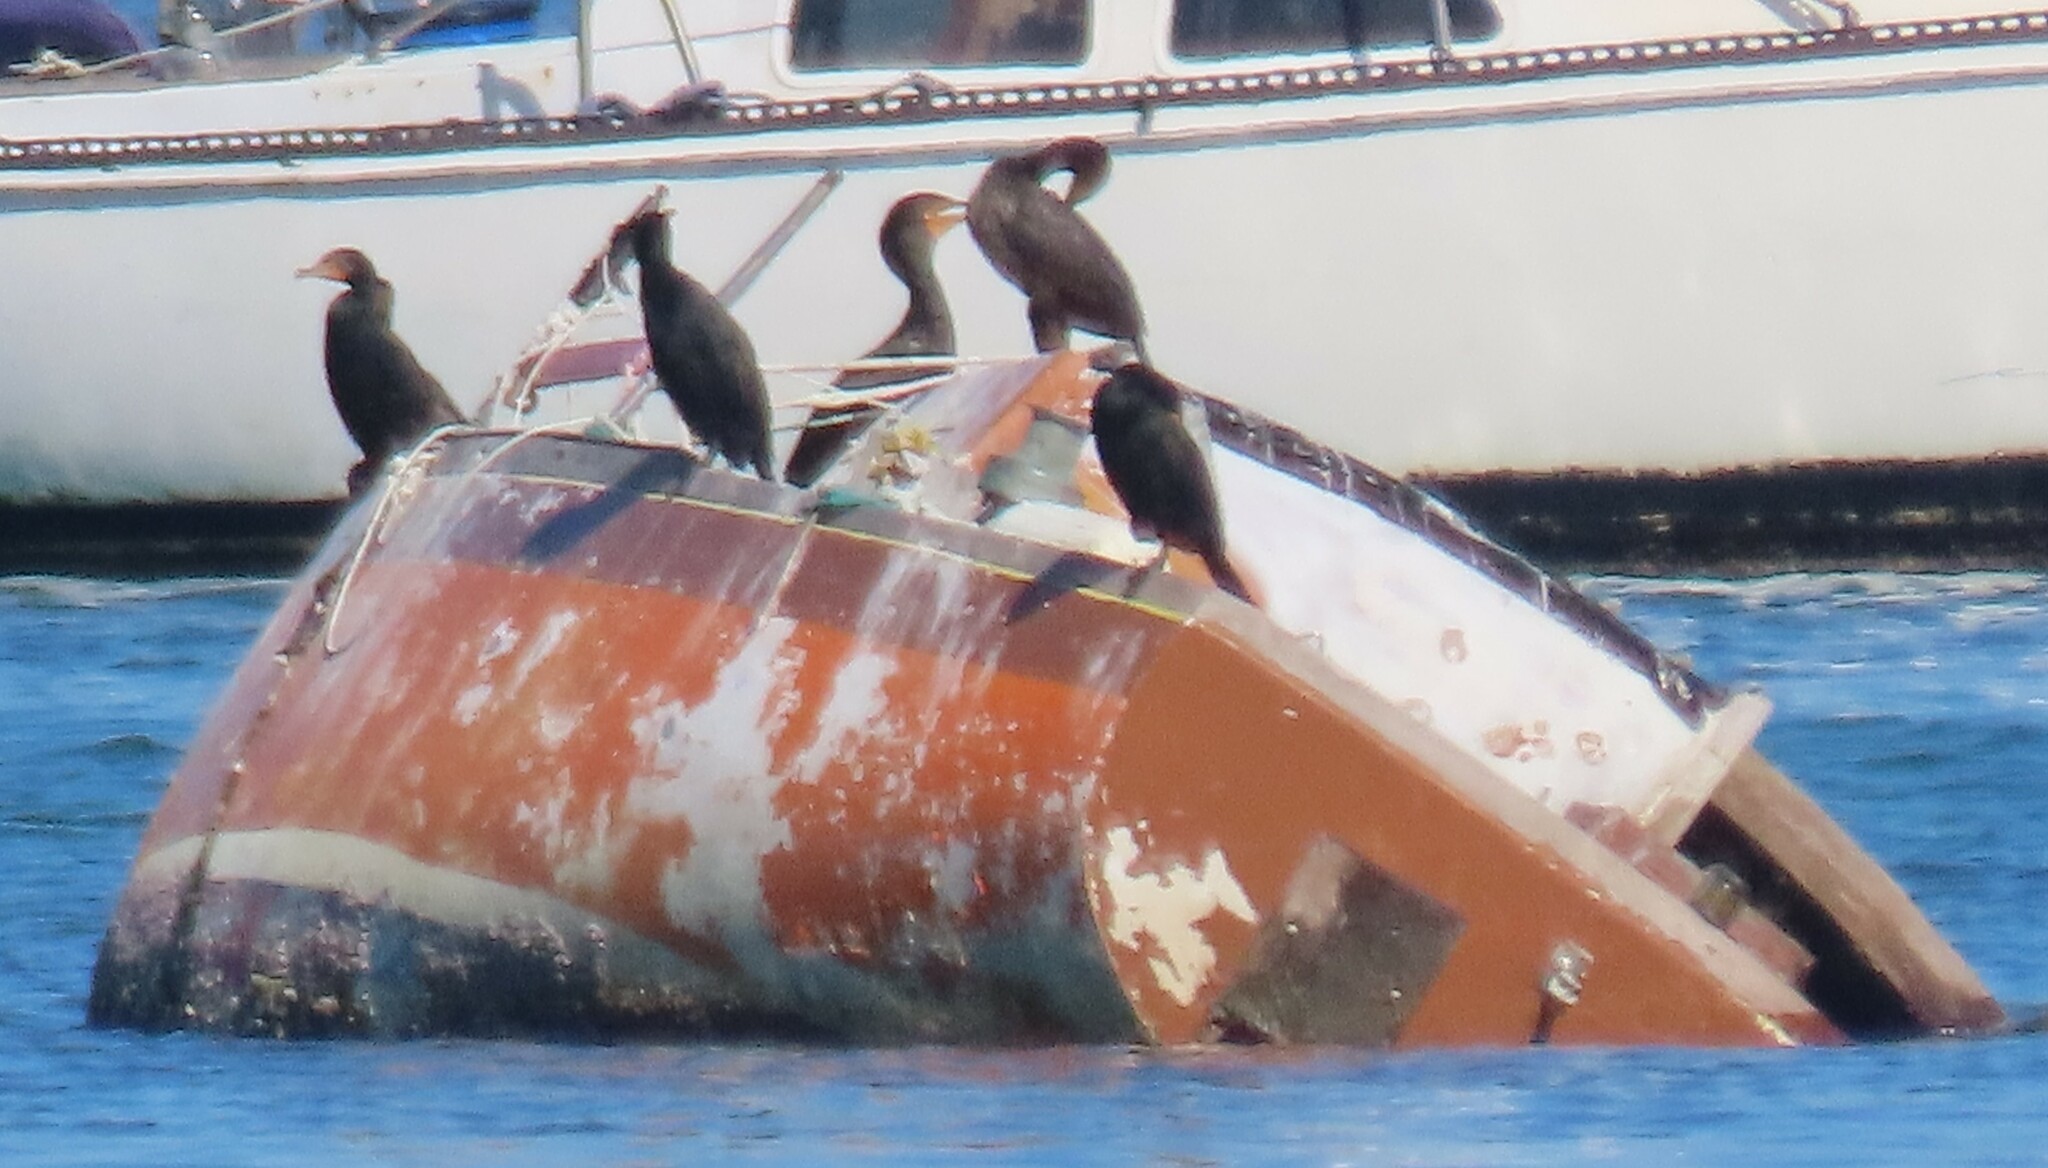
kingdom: Animalia
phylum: Chordata
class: Aves
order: Suliformes
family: Phalacrocoracidae
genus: Phalacrocorax
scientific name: Phalacrocorax auritus
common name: Double-crested cormorant
